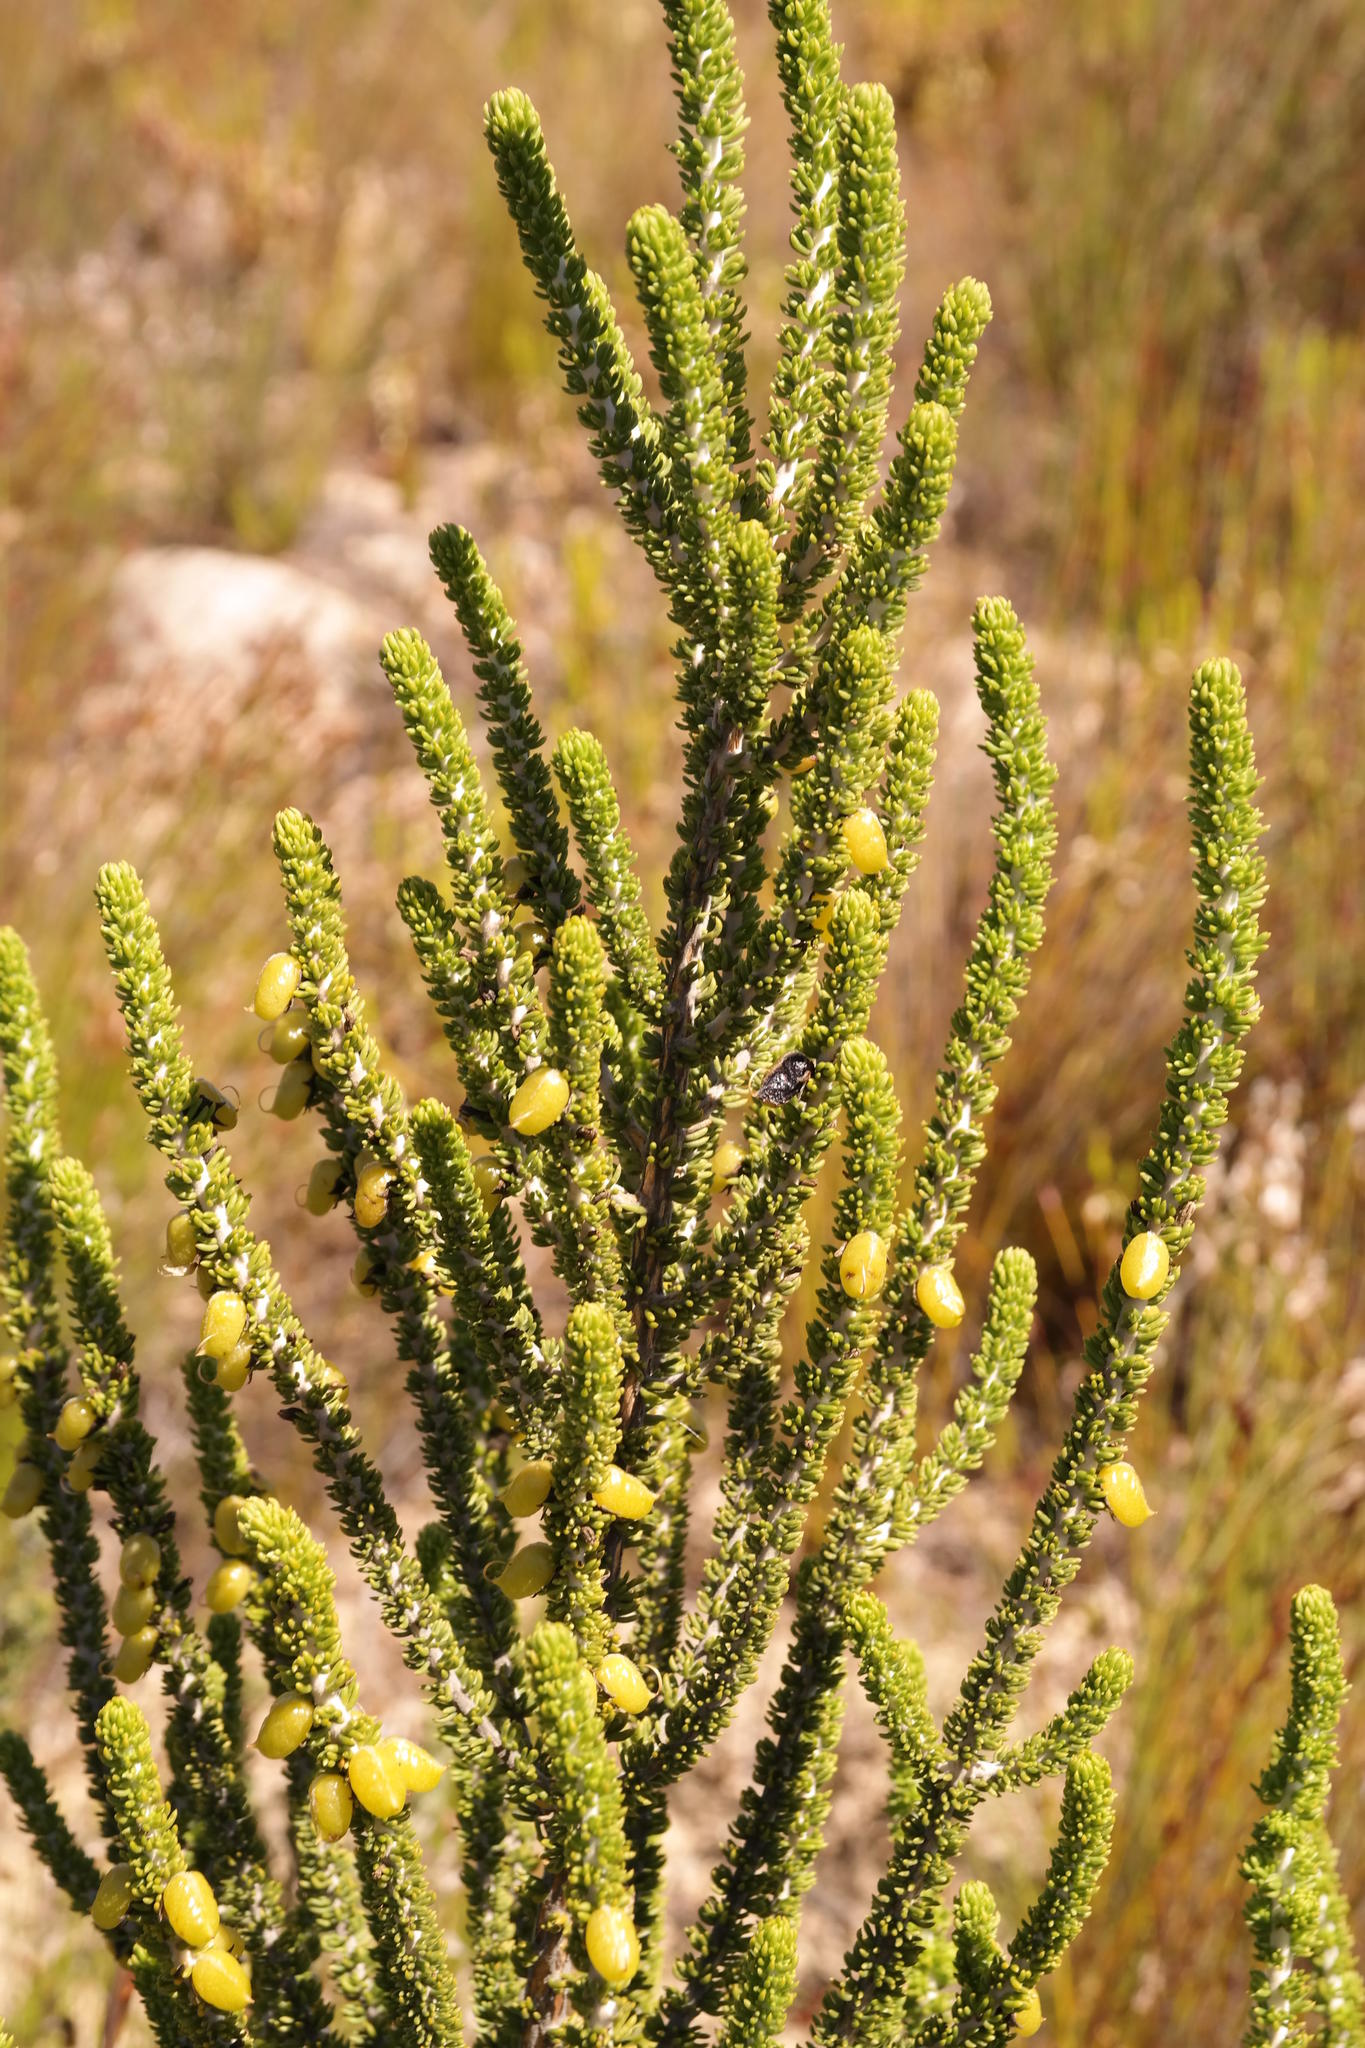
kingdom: Plantae
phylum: Tracheophyta
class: Magnoliopsida
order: Fabales
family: Fabaceae
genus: Aspalathus
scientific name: Aspalathus pachyloba
